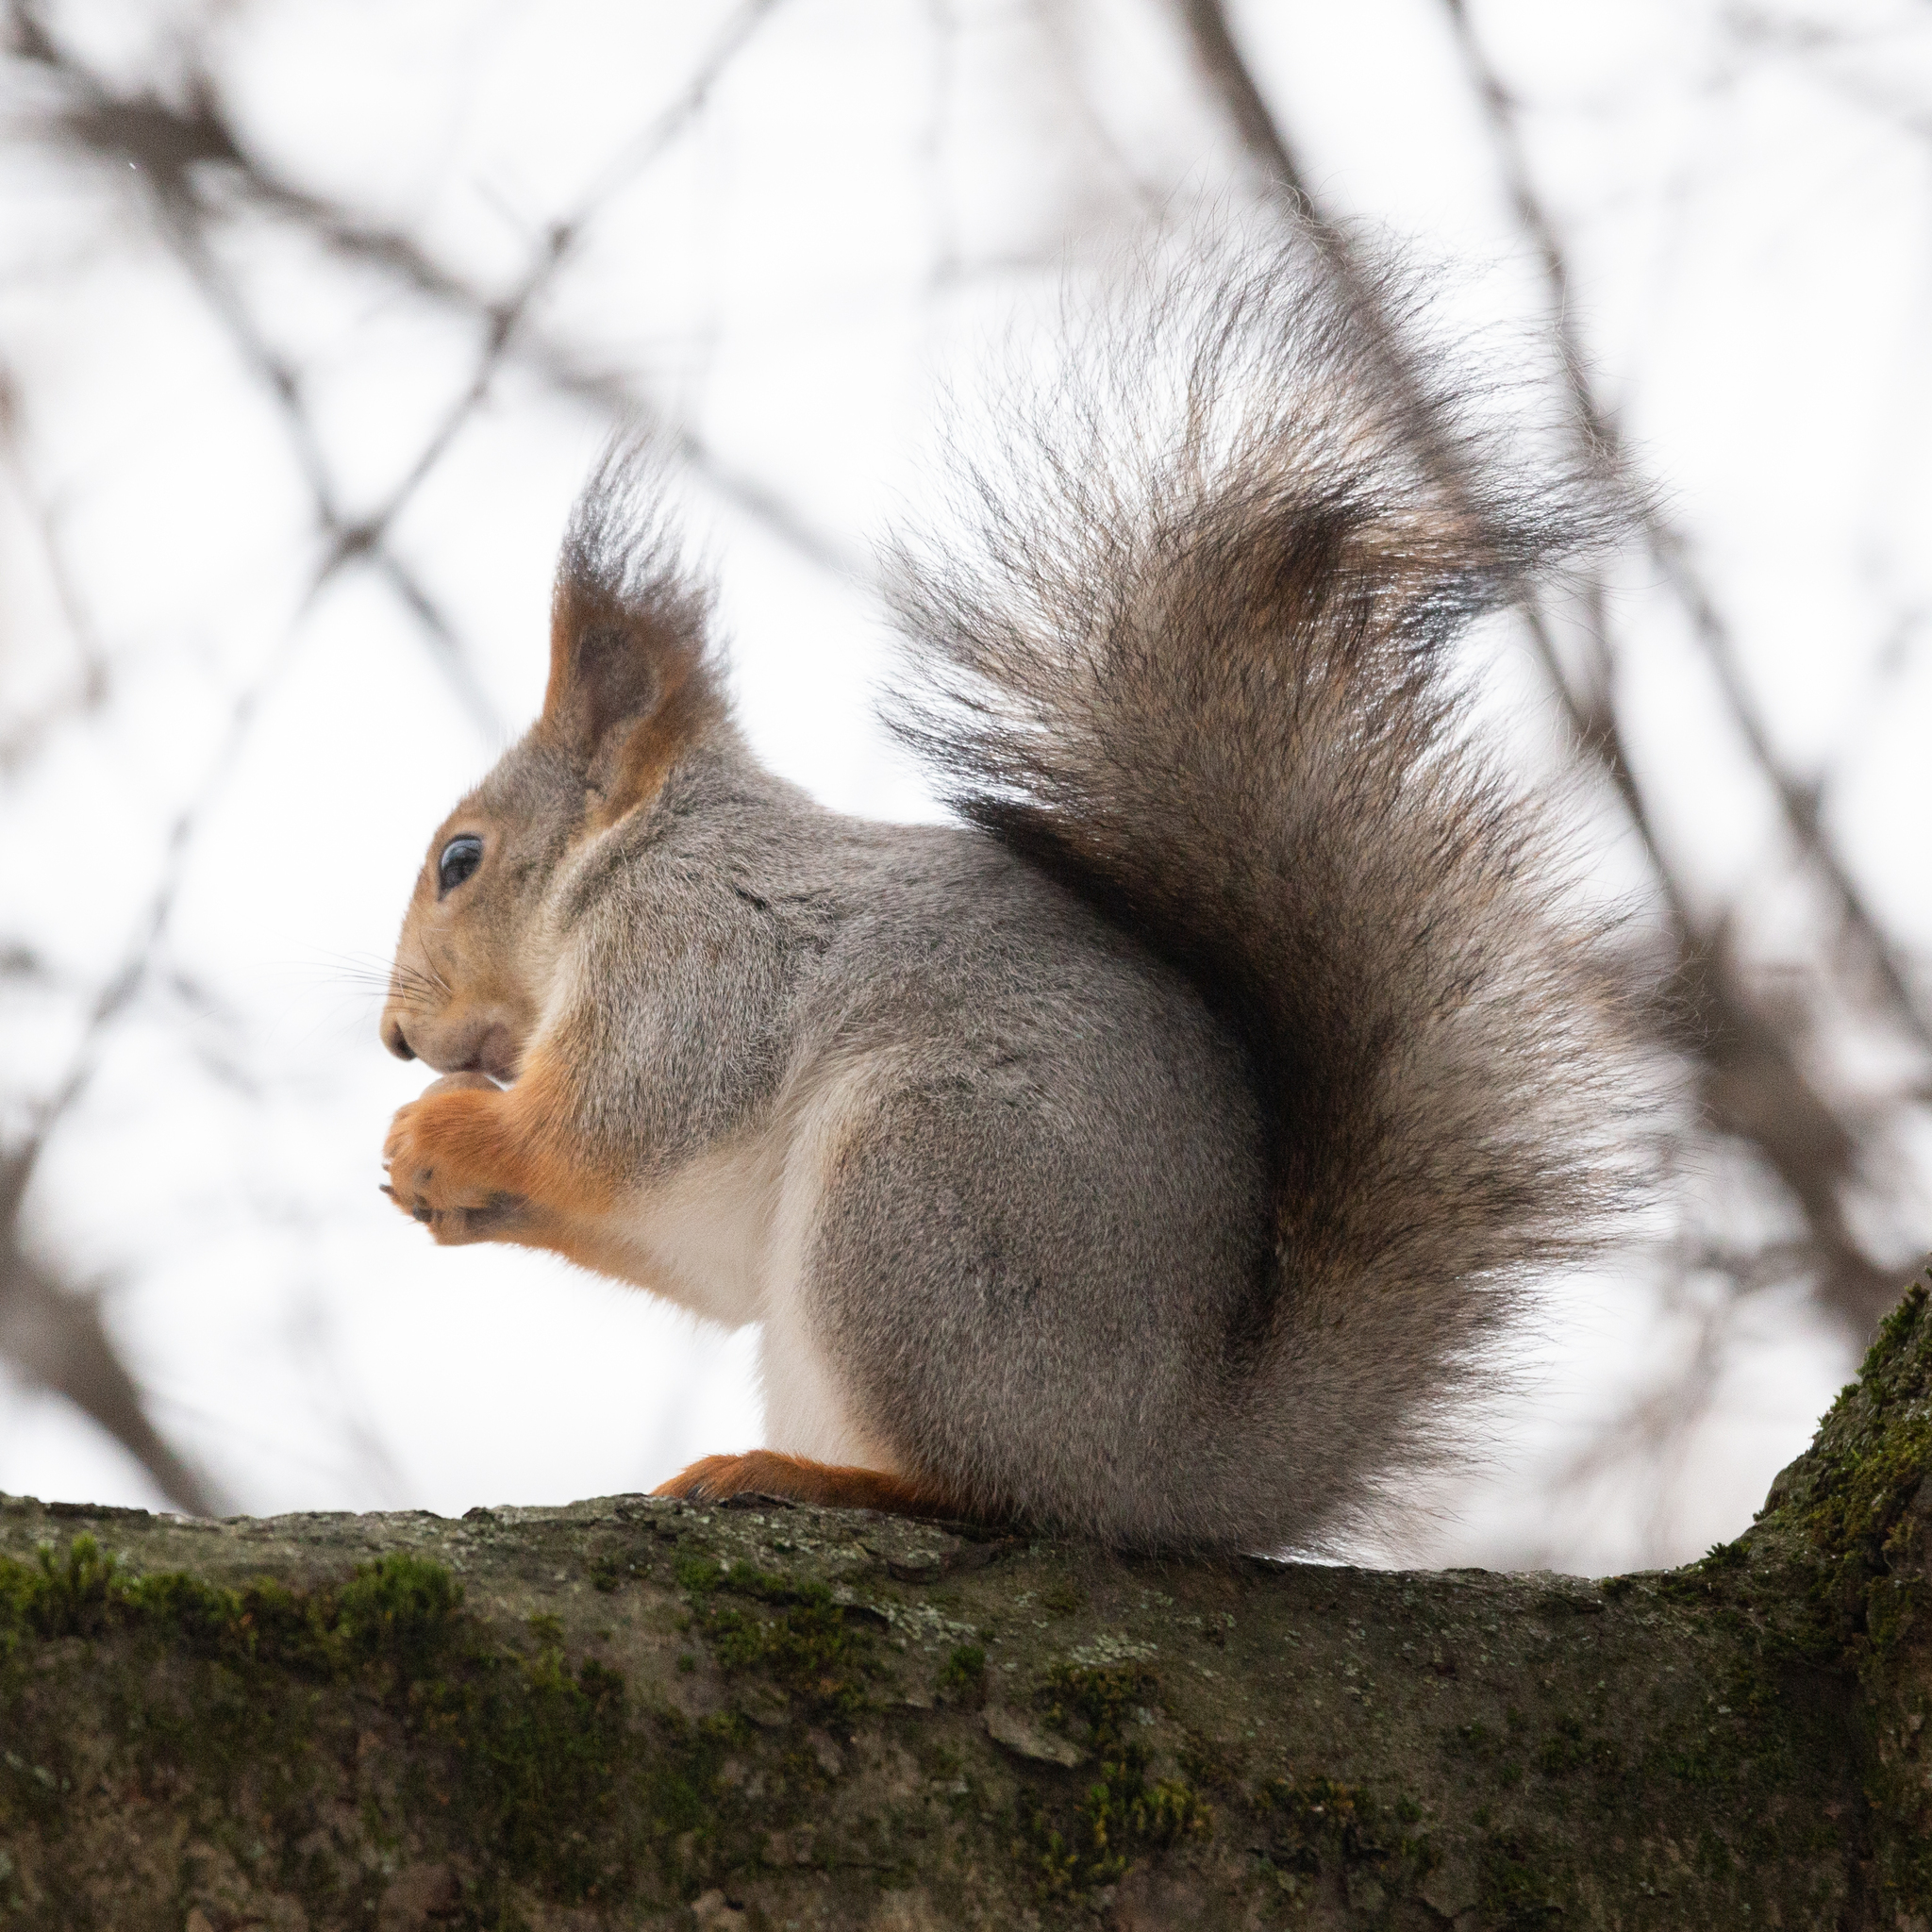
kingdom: Animalia
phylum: Chordata
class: Mammalia
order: Rodentia
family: Sciuridae
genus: Sciurus
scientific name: Sciurus vulgaris
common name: Eurasian red squirrel
